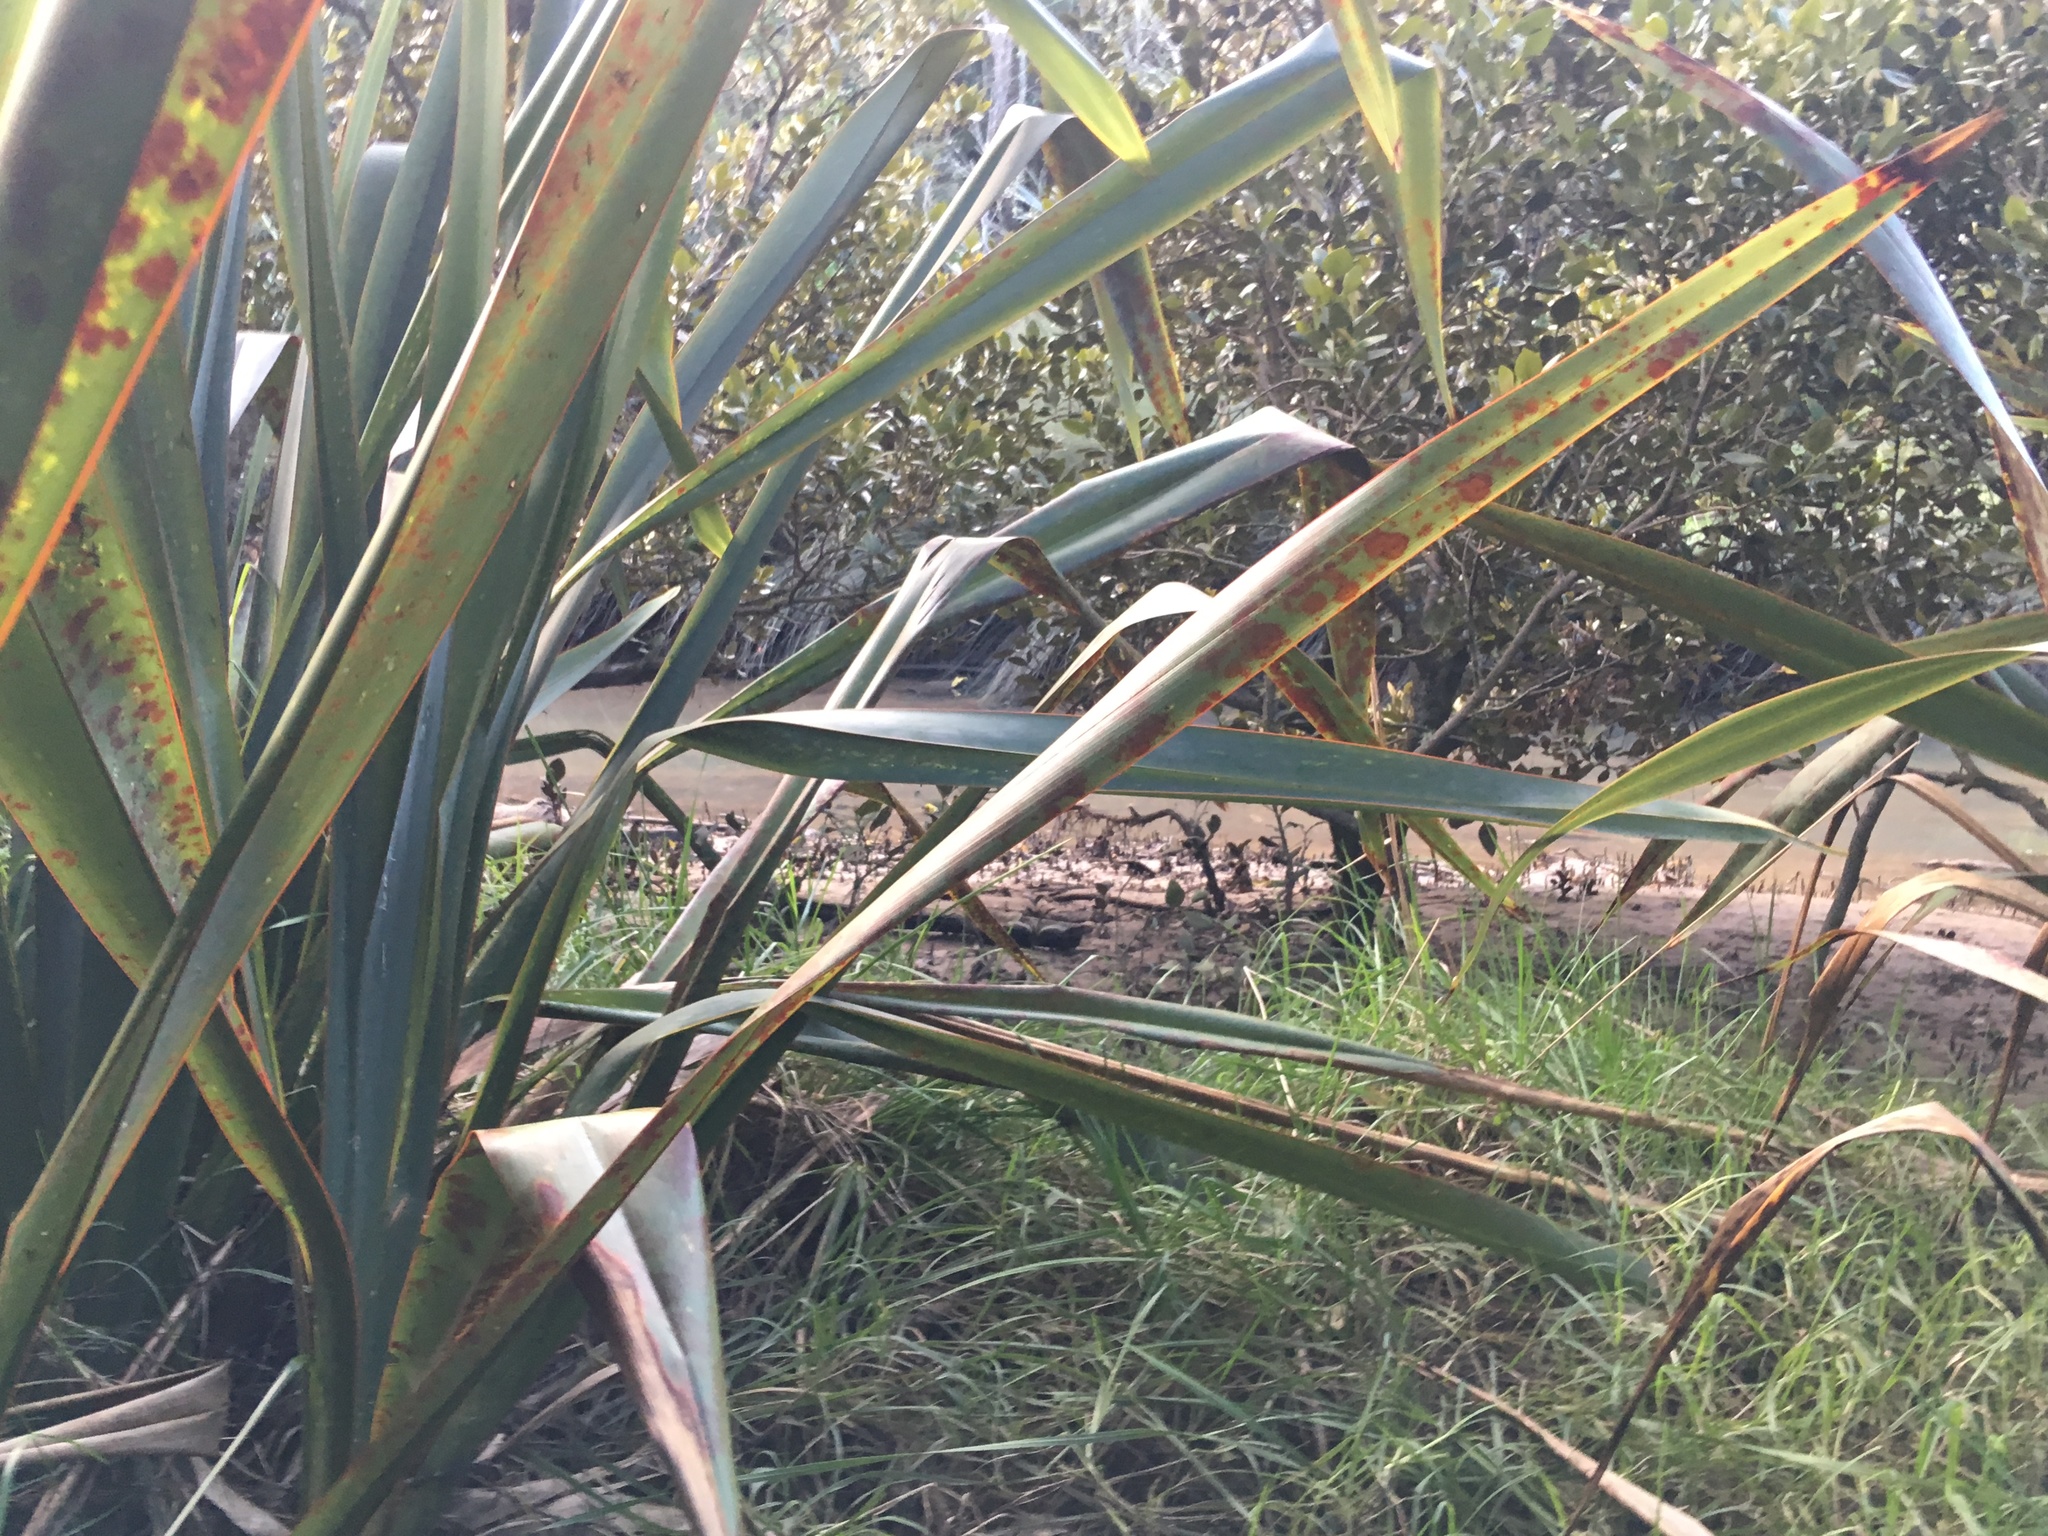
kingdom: Plantae
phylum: Tracheophyta
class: Liliopsida
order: Asparagales
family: Asphodelaceae
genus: Phormium
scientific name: Phormium tenax
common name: New zealand flax
